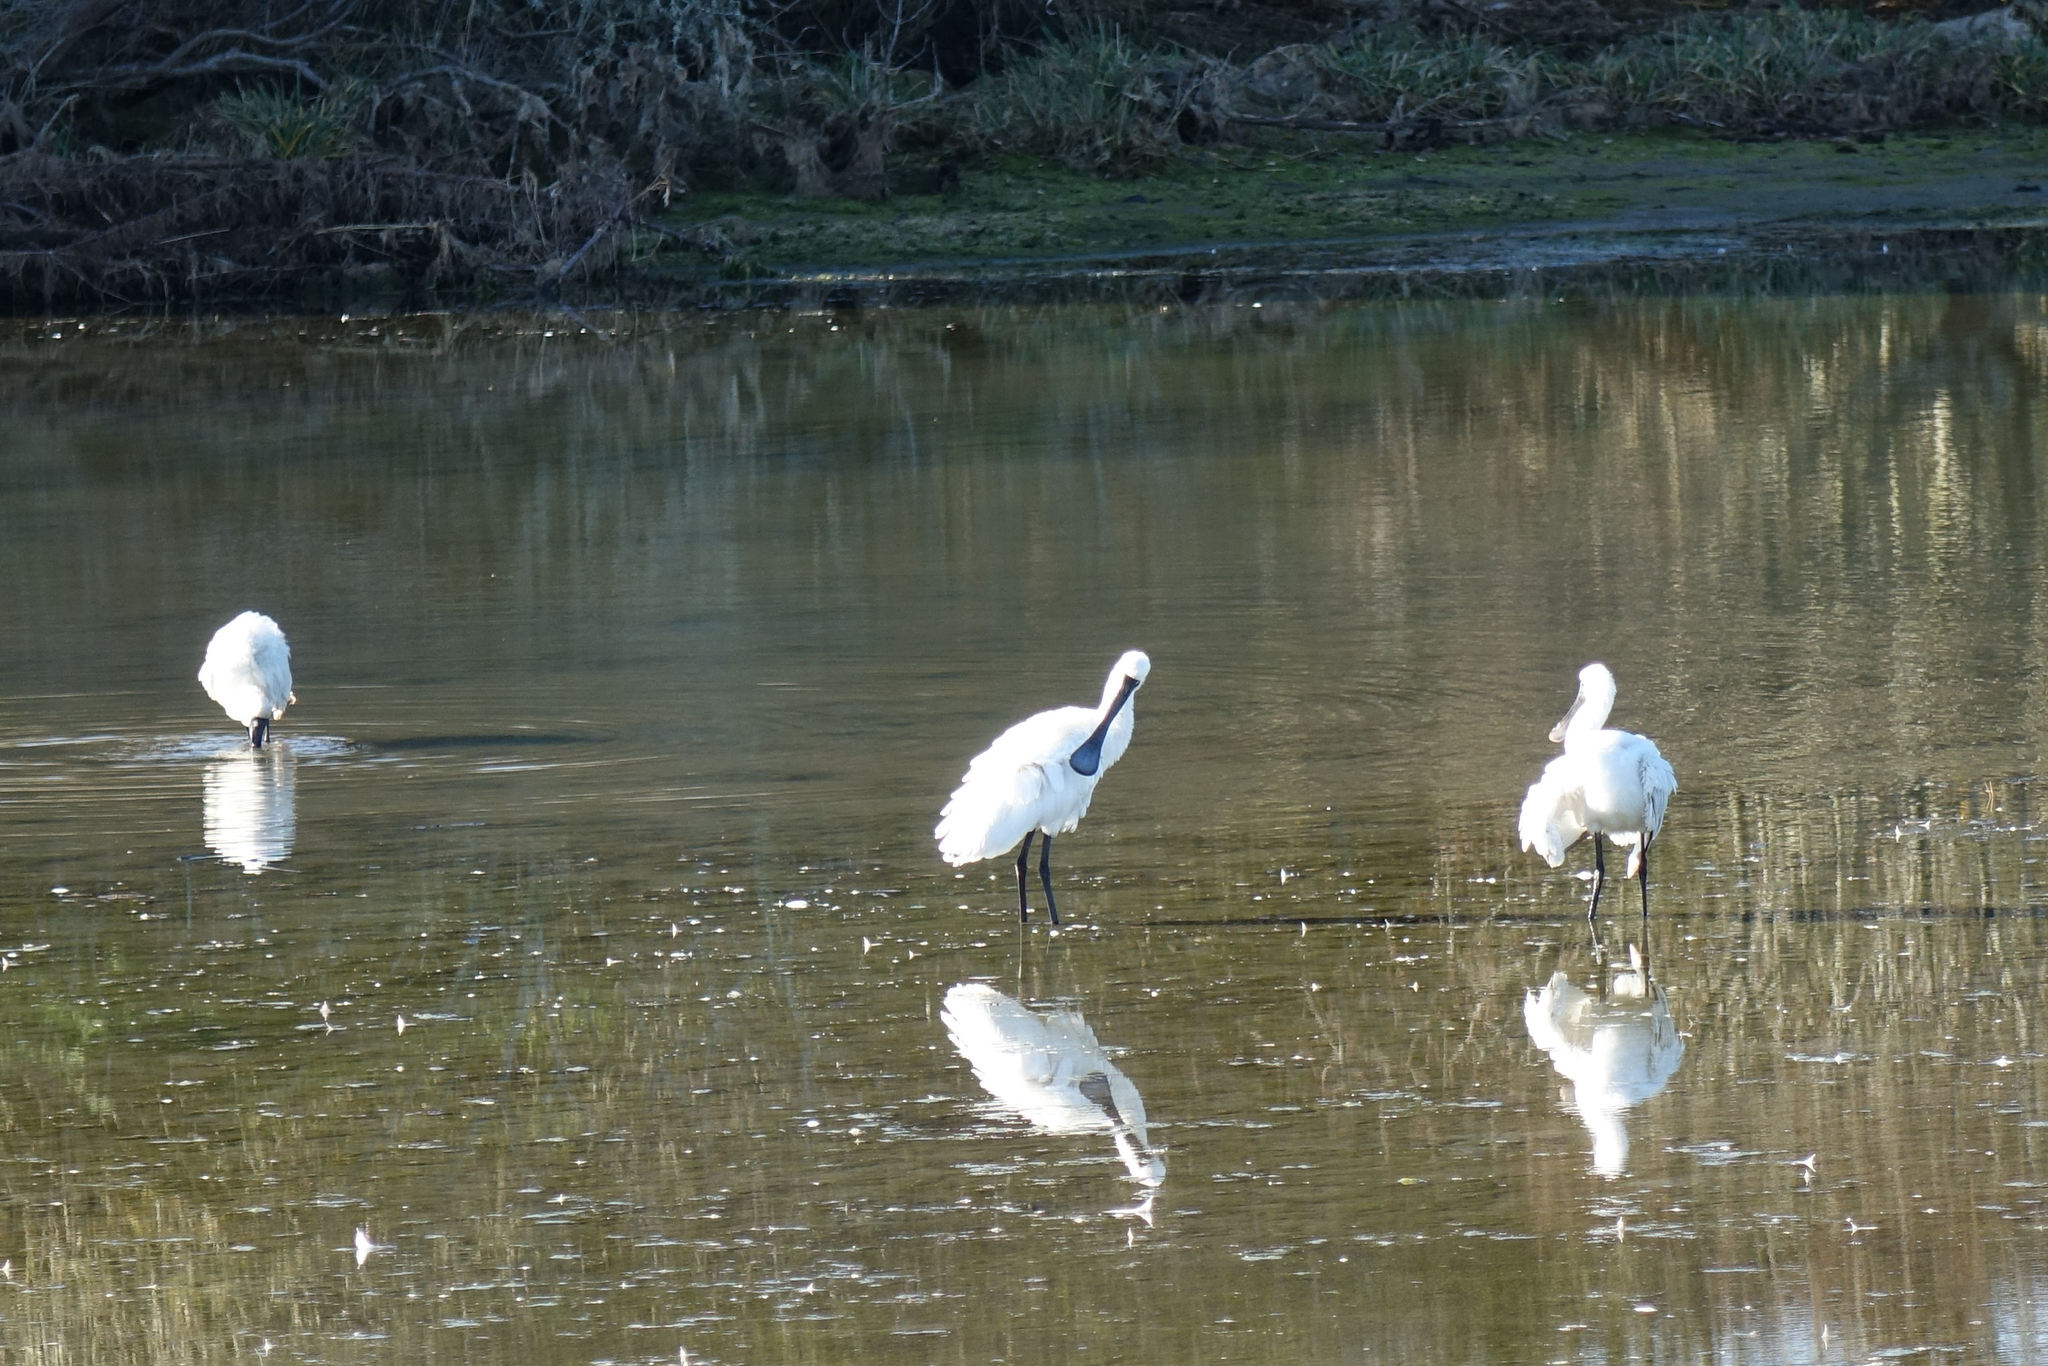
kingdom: Animalia
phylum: Chordata
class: Aves
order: Pelecaniformes
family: Threskiornithidae
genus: Platalea
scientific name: Platalea regia
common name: Royal spoonbill
